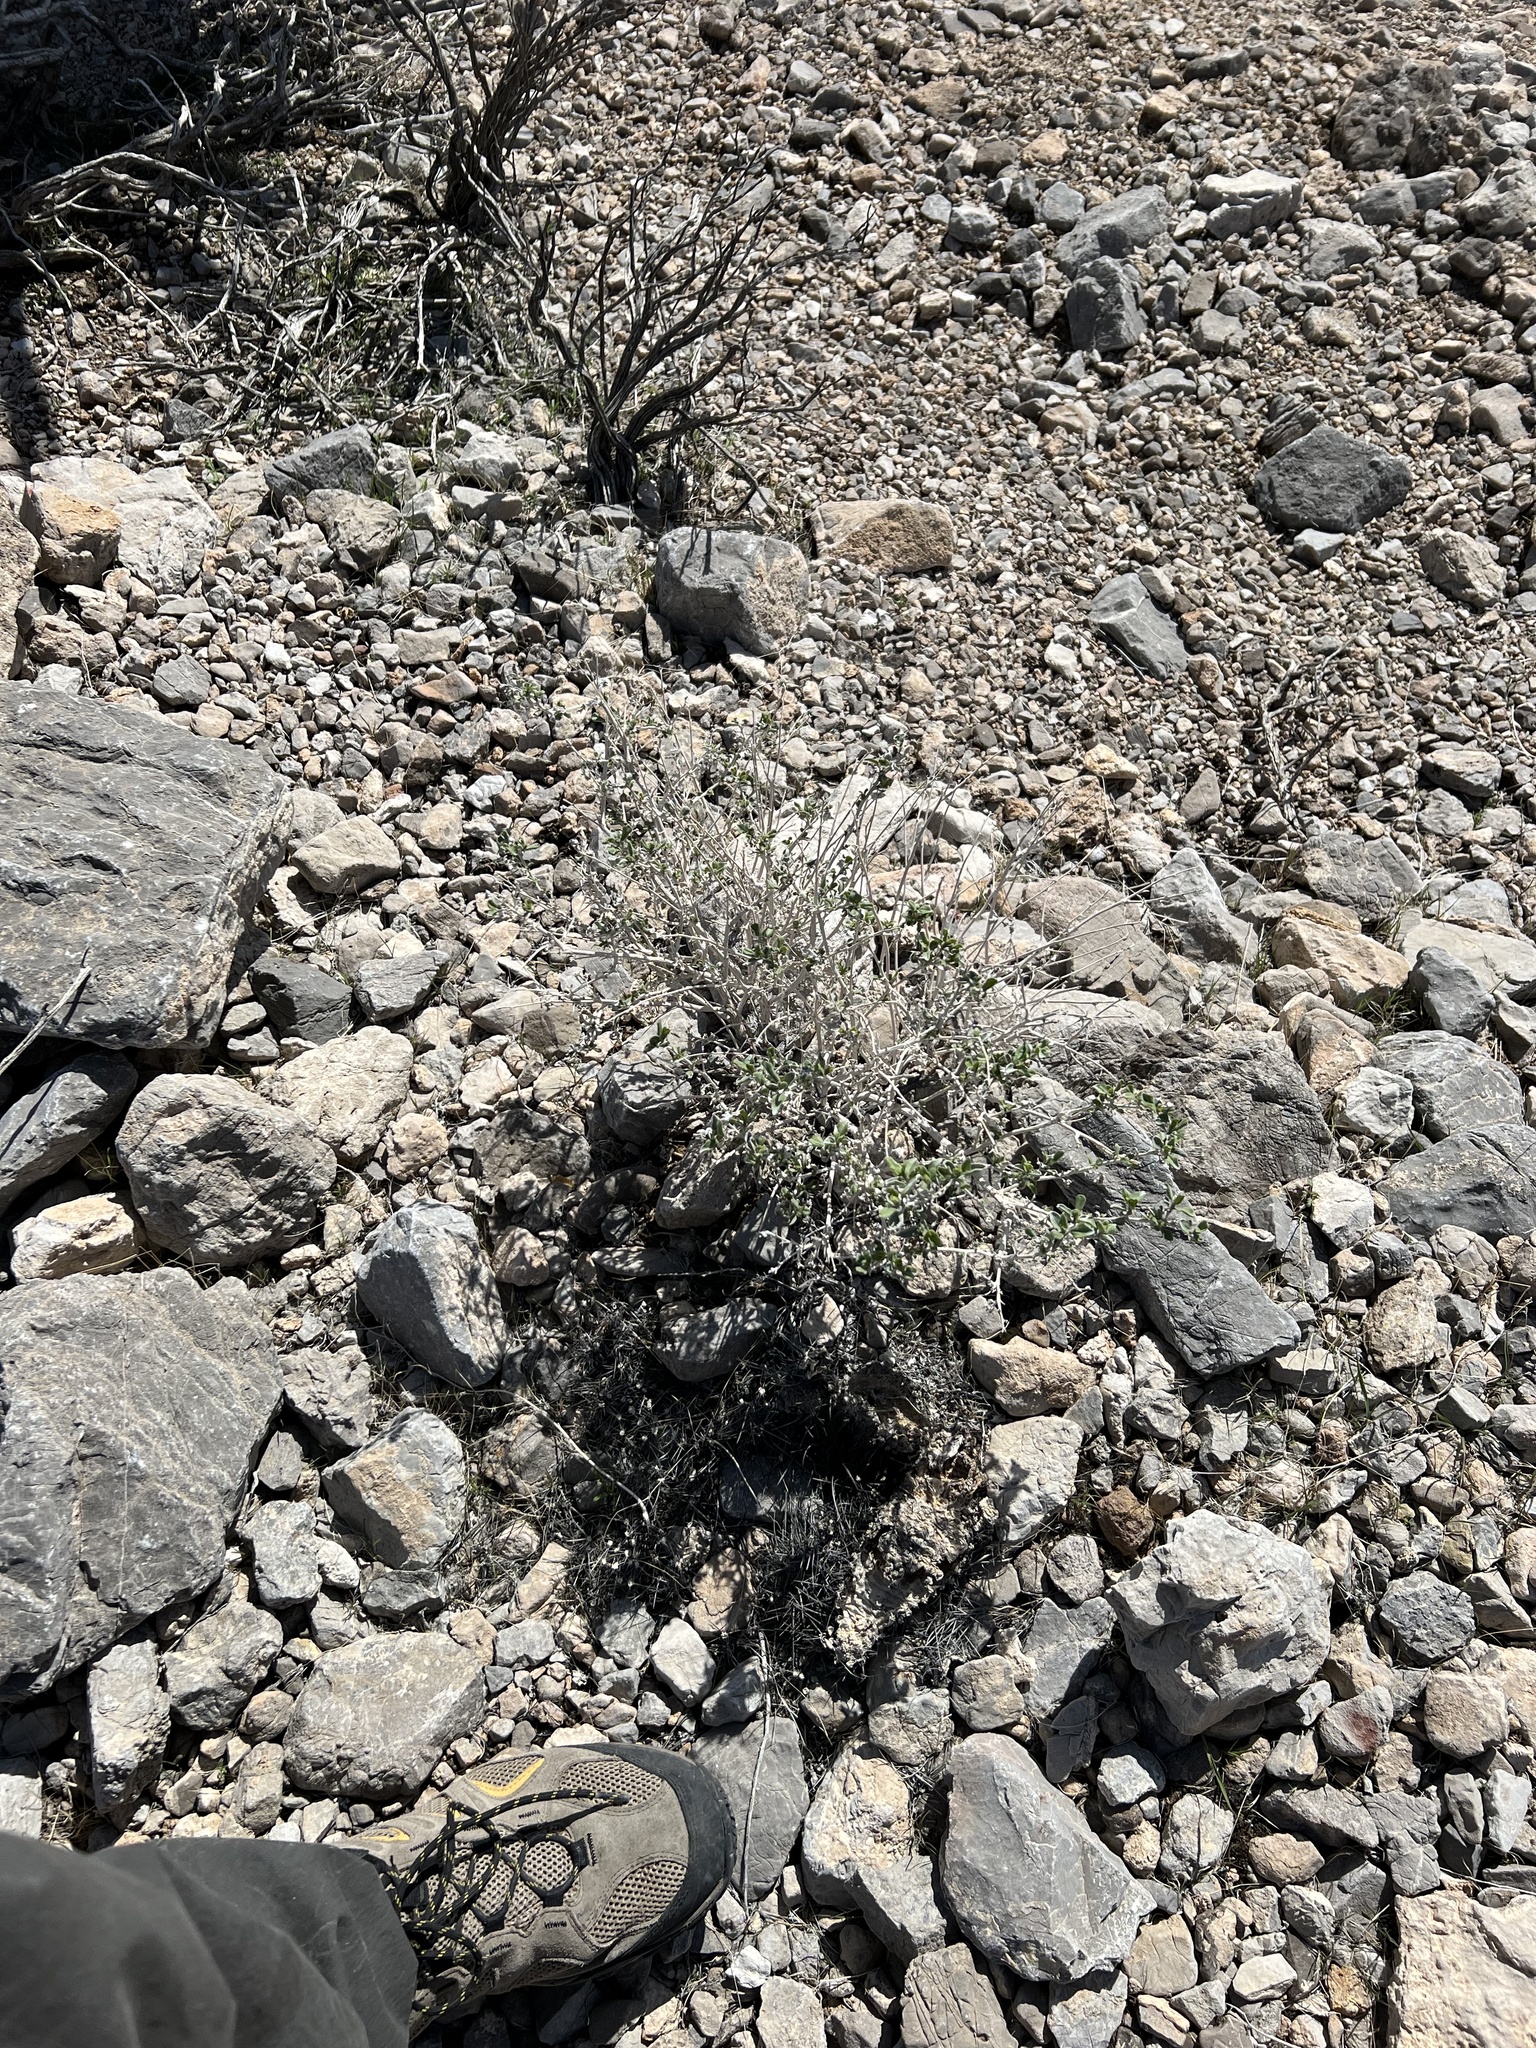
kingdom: Plantae
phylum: Tracheophyta
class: Magnoliopsida
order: Asterales
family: Asteraceae
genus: Ambrosia
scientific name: Ambrosia dumosa
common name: Bur-sage
